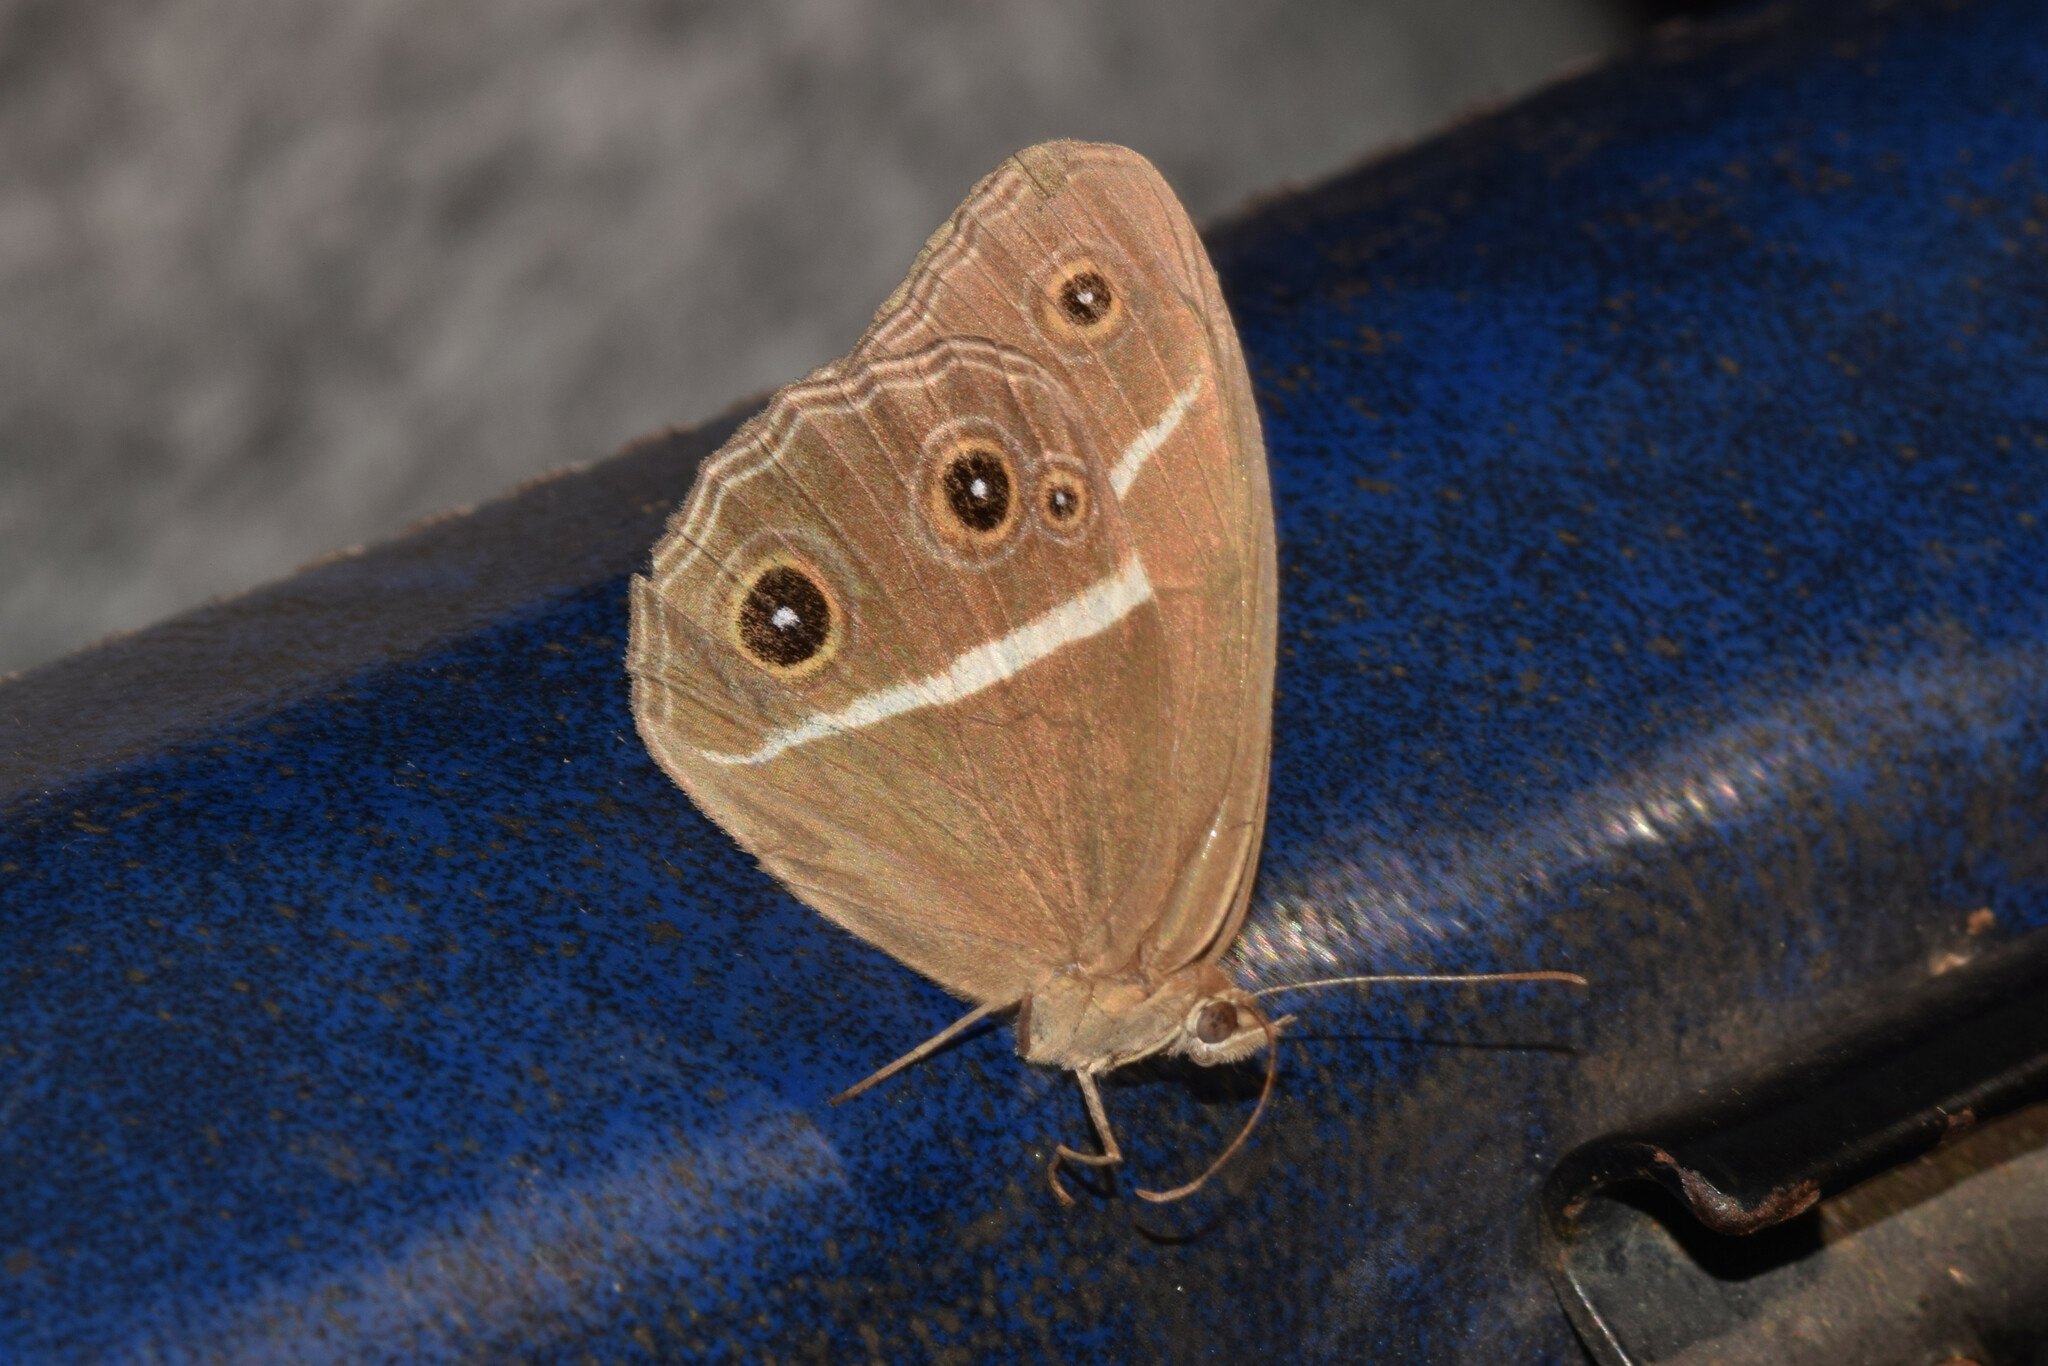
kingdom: Animalia
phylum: Arthropoda
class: Insecta
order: Lepidoptera
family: Nymphalidae
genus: Orsotriaena
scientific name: Orsotriaena medus
